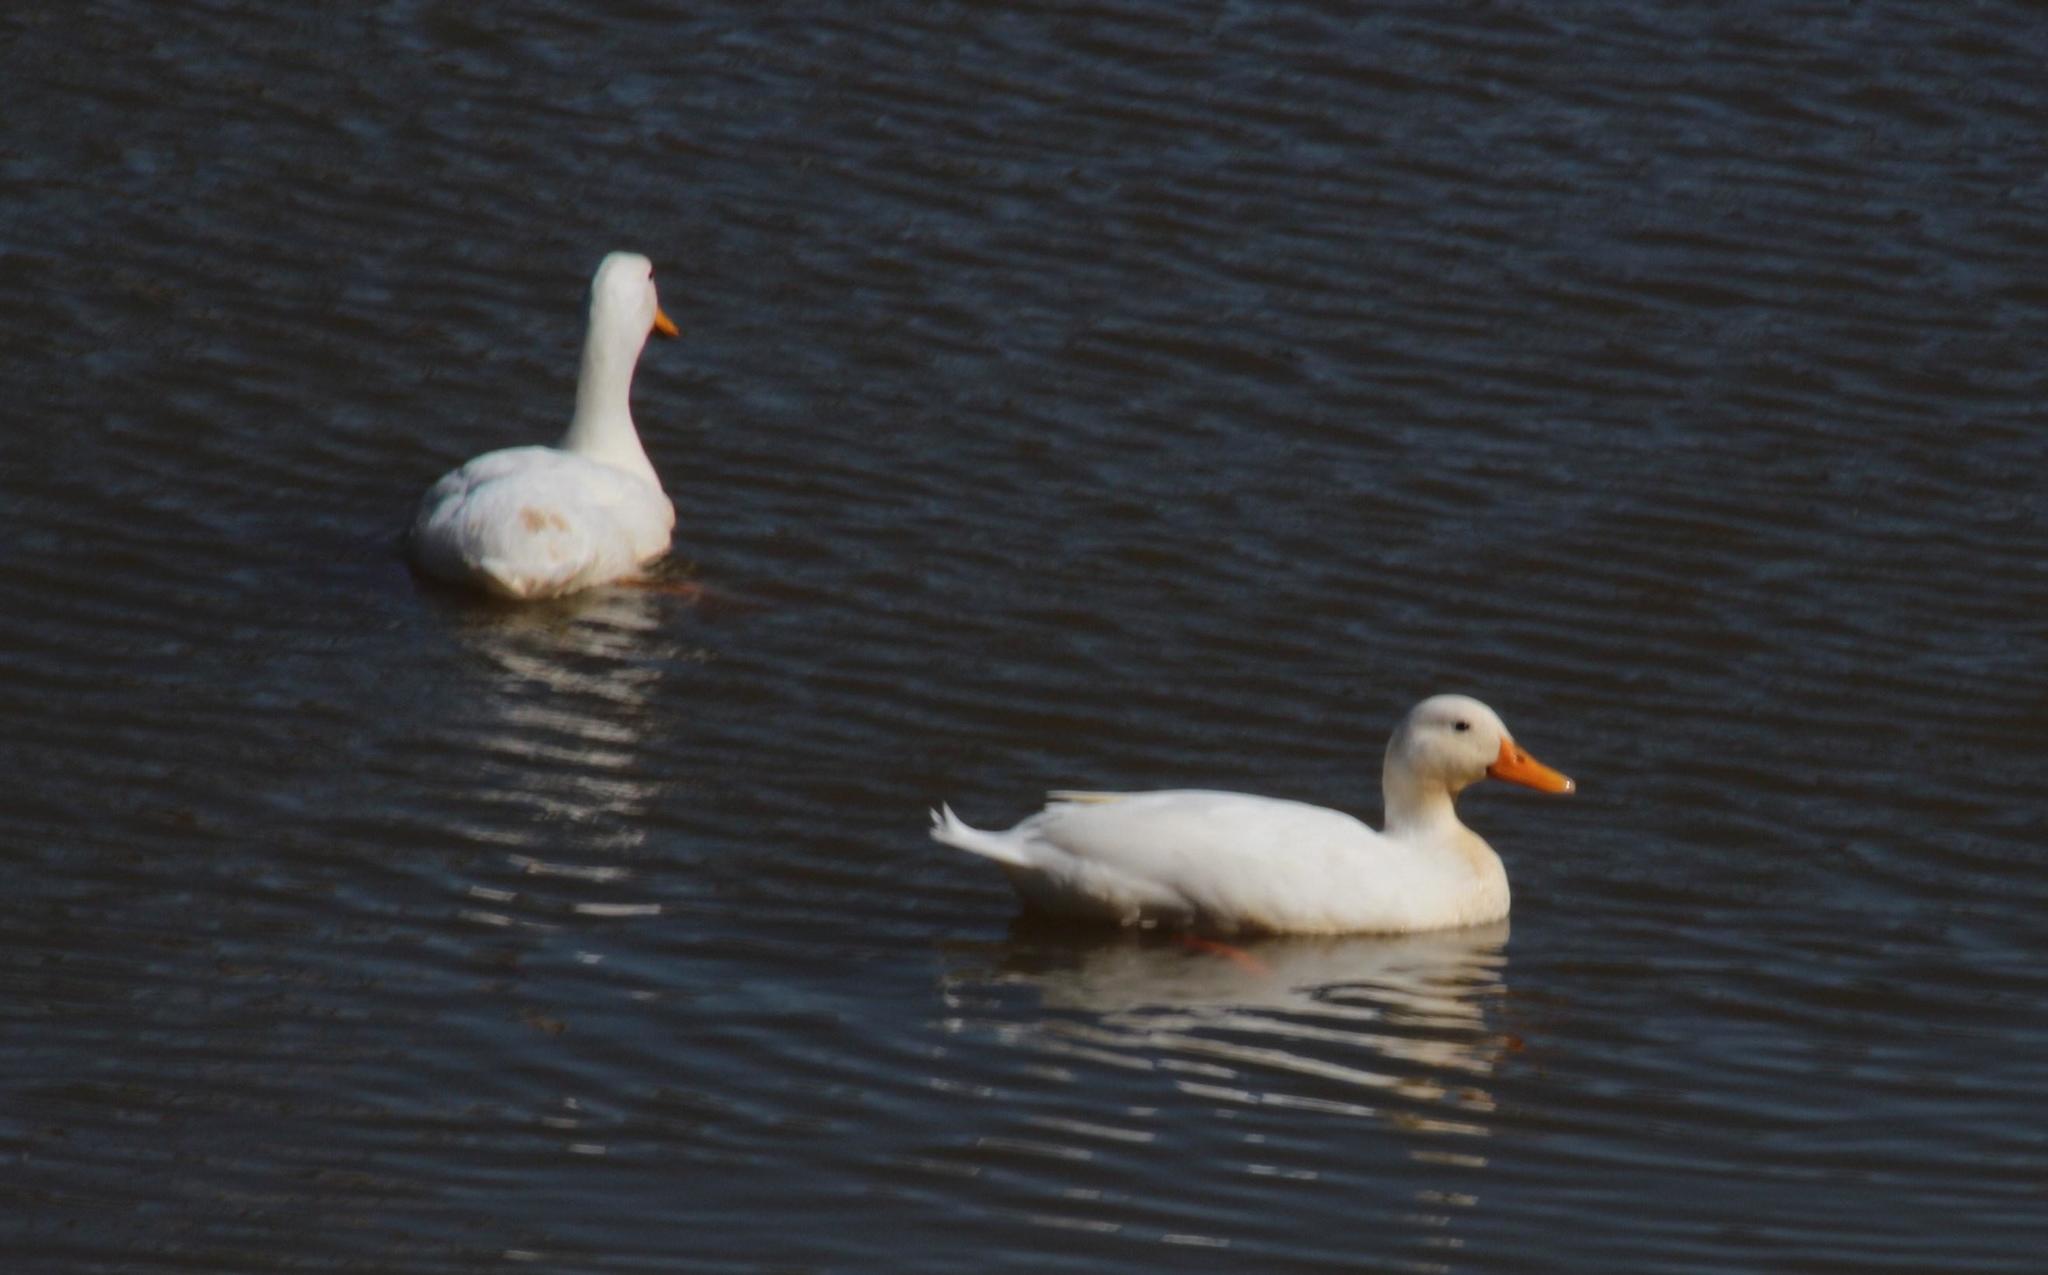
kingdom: Animalia
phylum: Chordata
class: Aves
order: Anseriformes
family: Anatidae
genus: Anas
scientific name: Anas platyrhynchos
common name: Mallard
